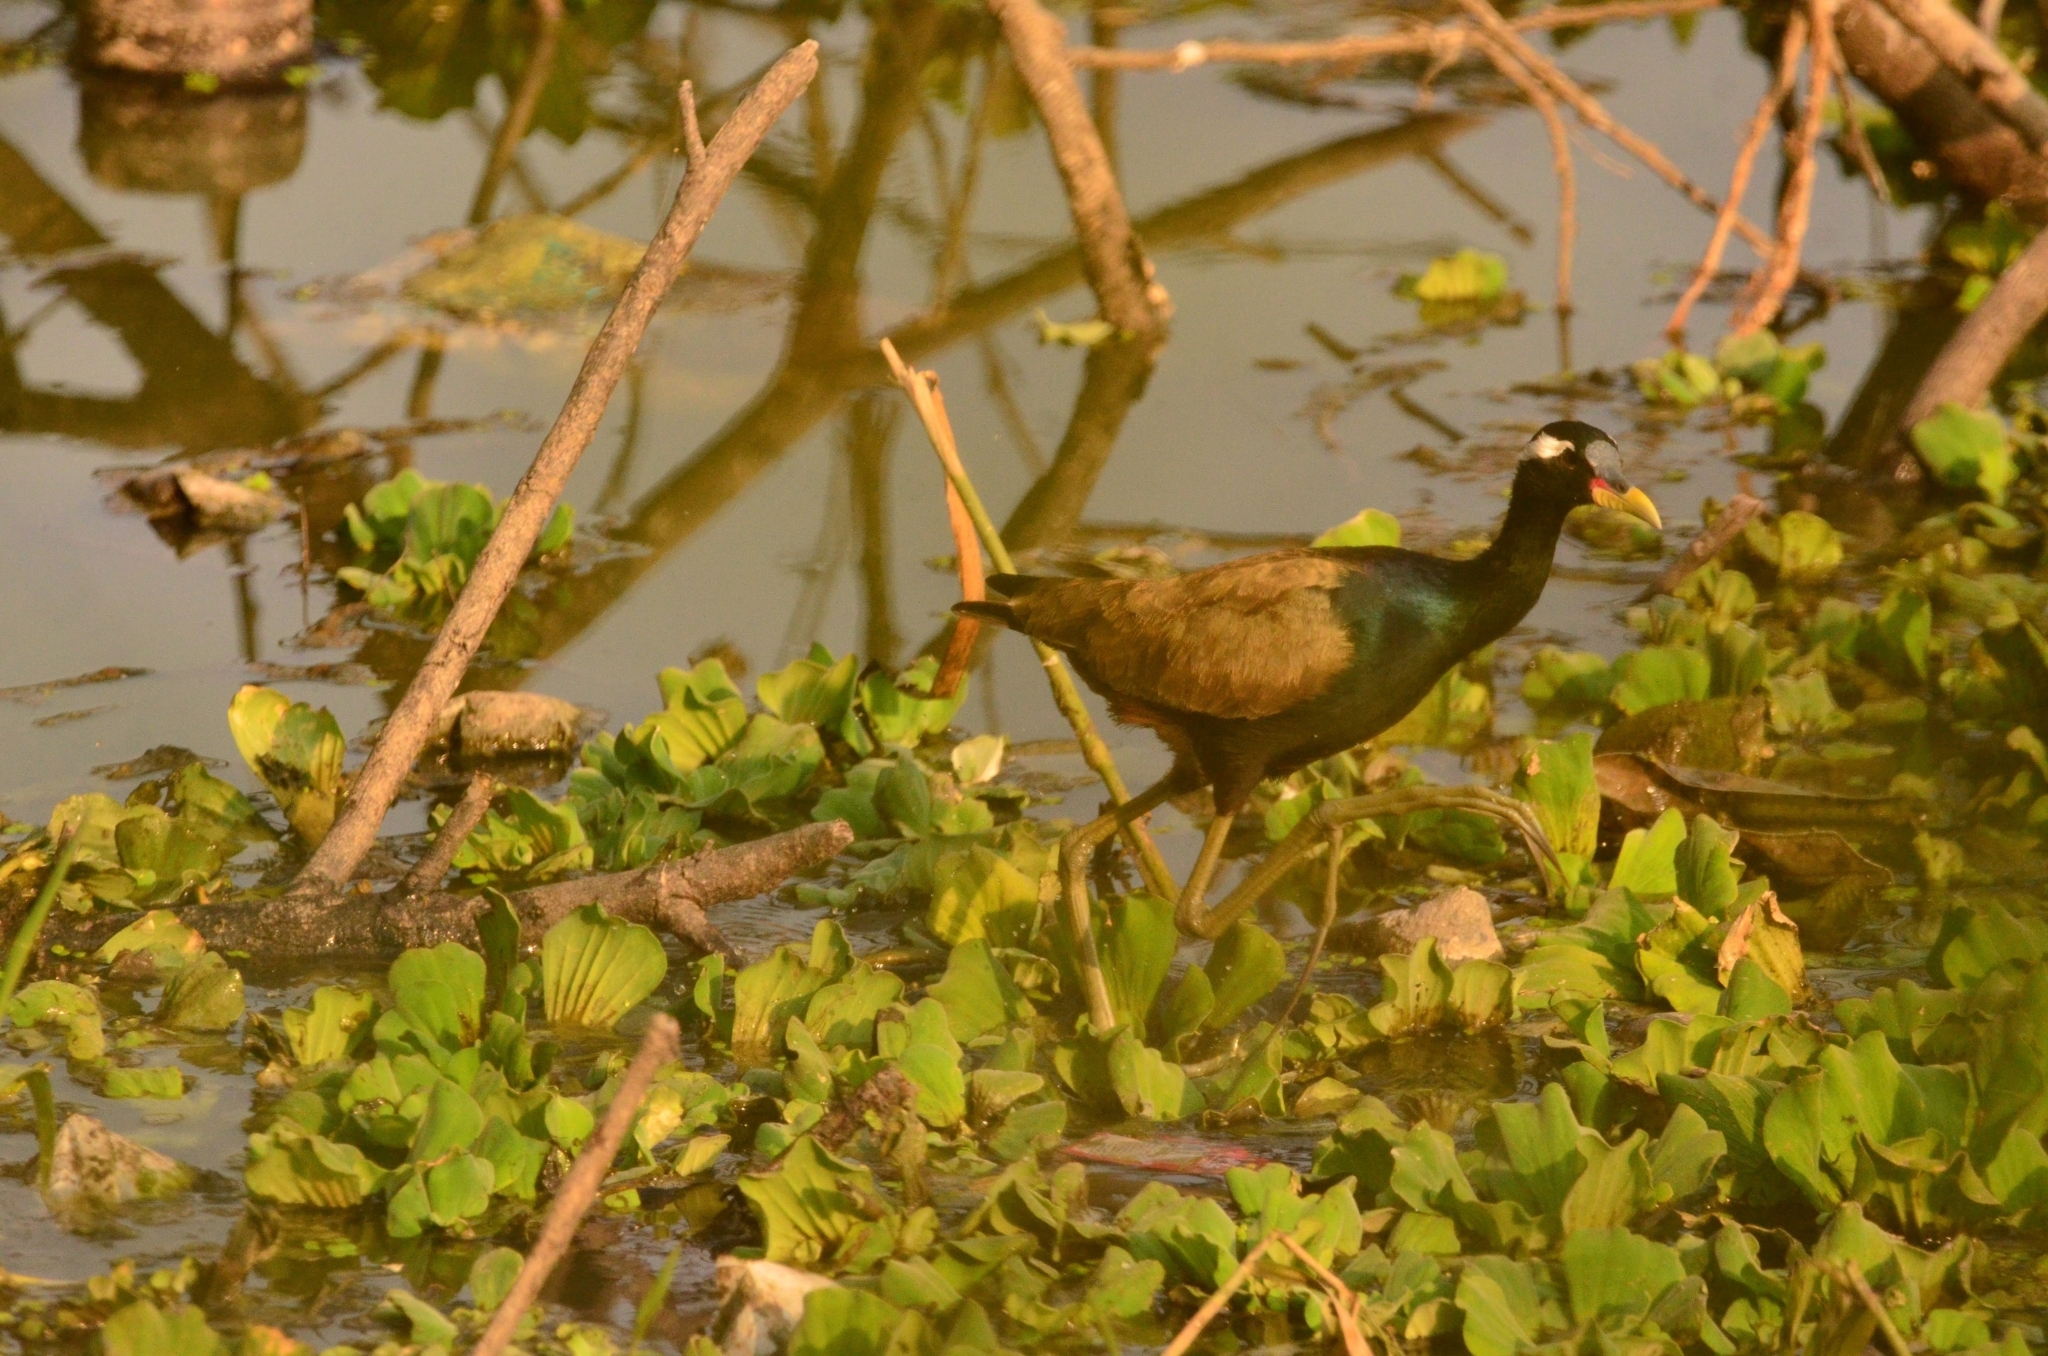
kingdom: Animalia
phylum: Chordata
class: Aves
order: Charadriiformes
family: Jacanidae
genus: Metopidius
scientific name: Metopidius indicus
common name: Bronze-winged jacana
